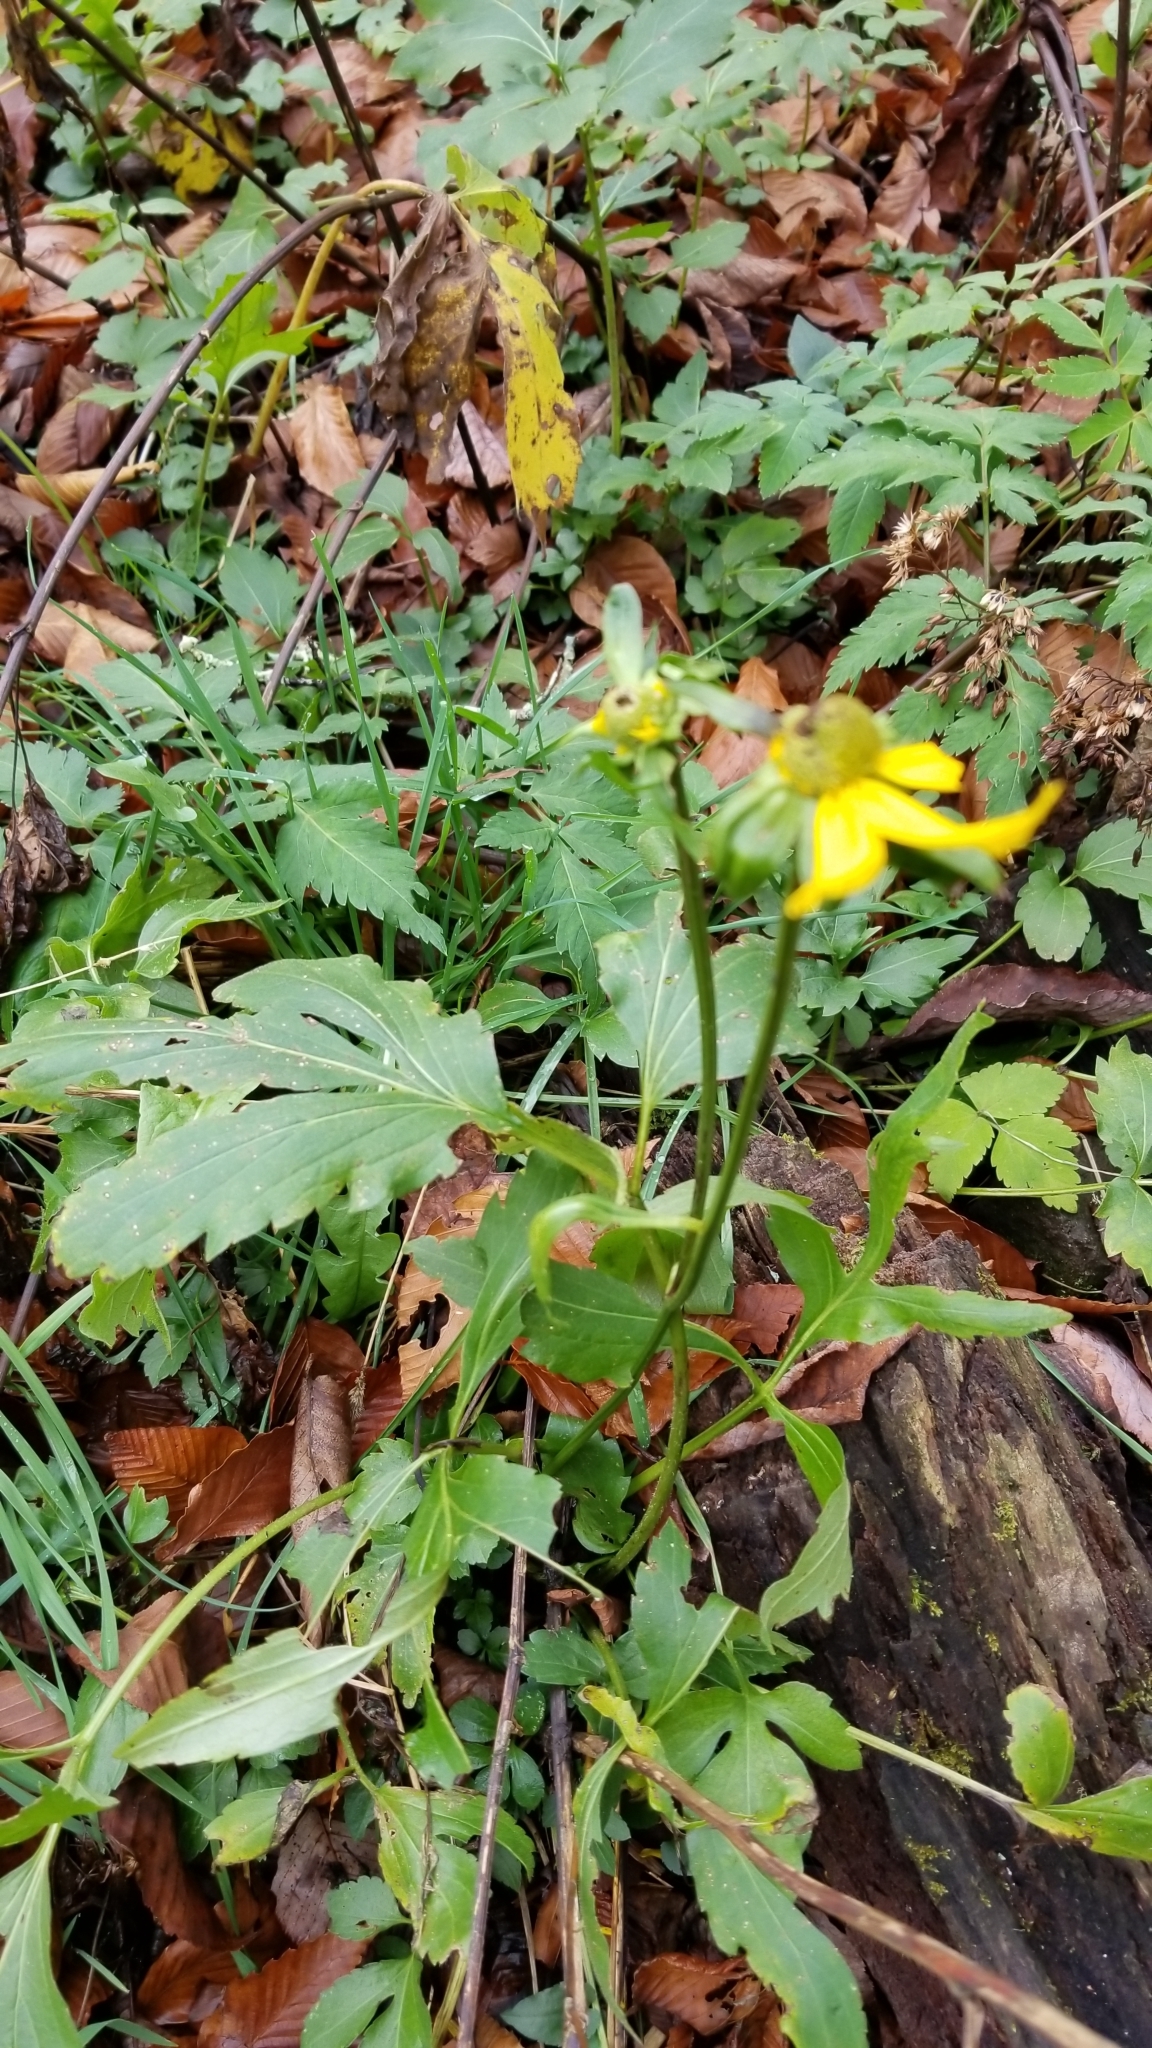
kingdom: Plantae
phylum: Tracheophyta
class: Magnoliopsida
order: Asterales
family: Asteraceae
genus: Rudbeckia
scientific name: Rudbeckia laciniata
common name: Coneflower
